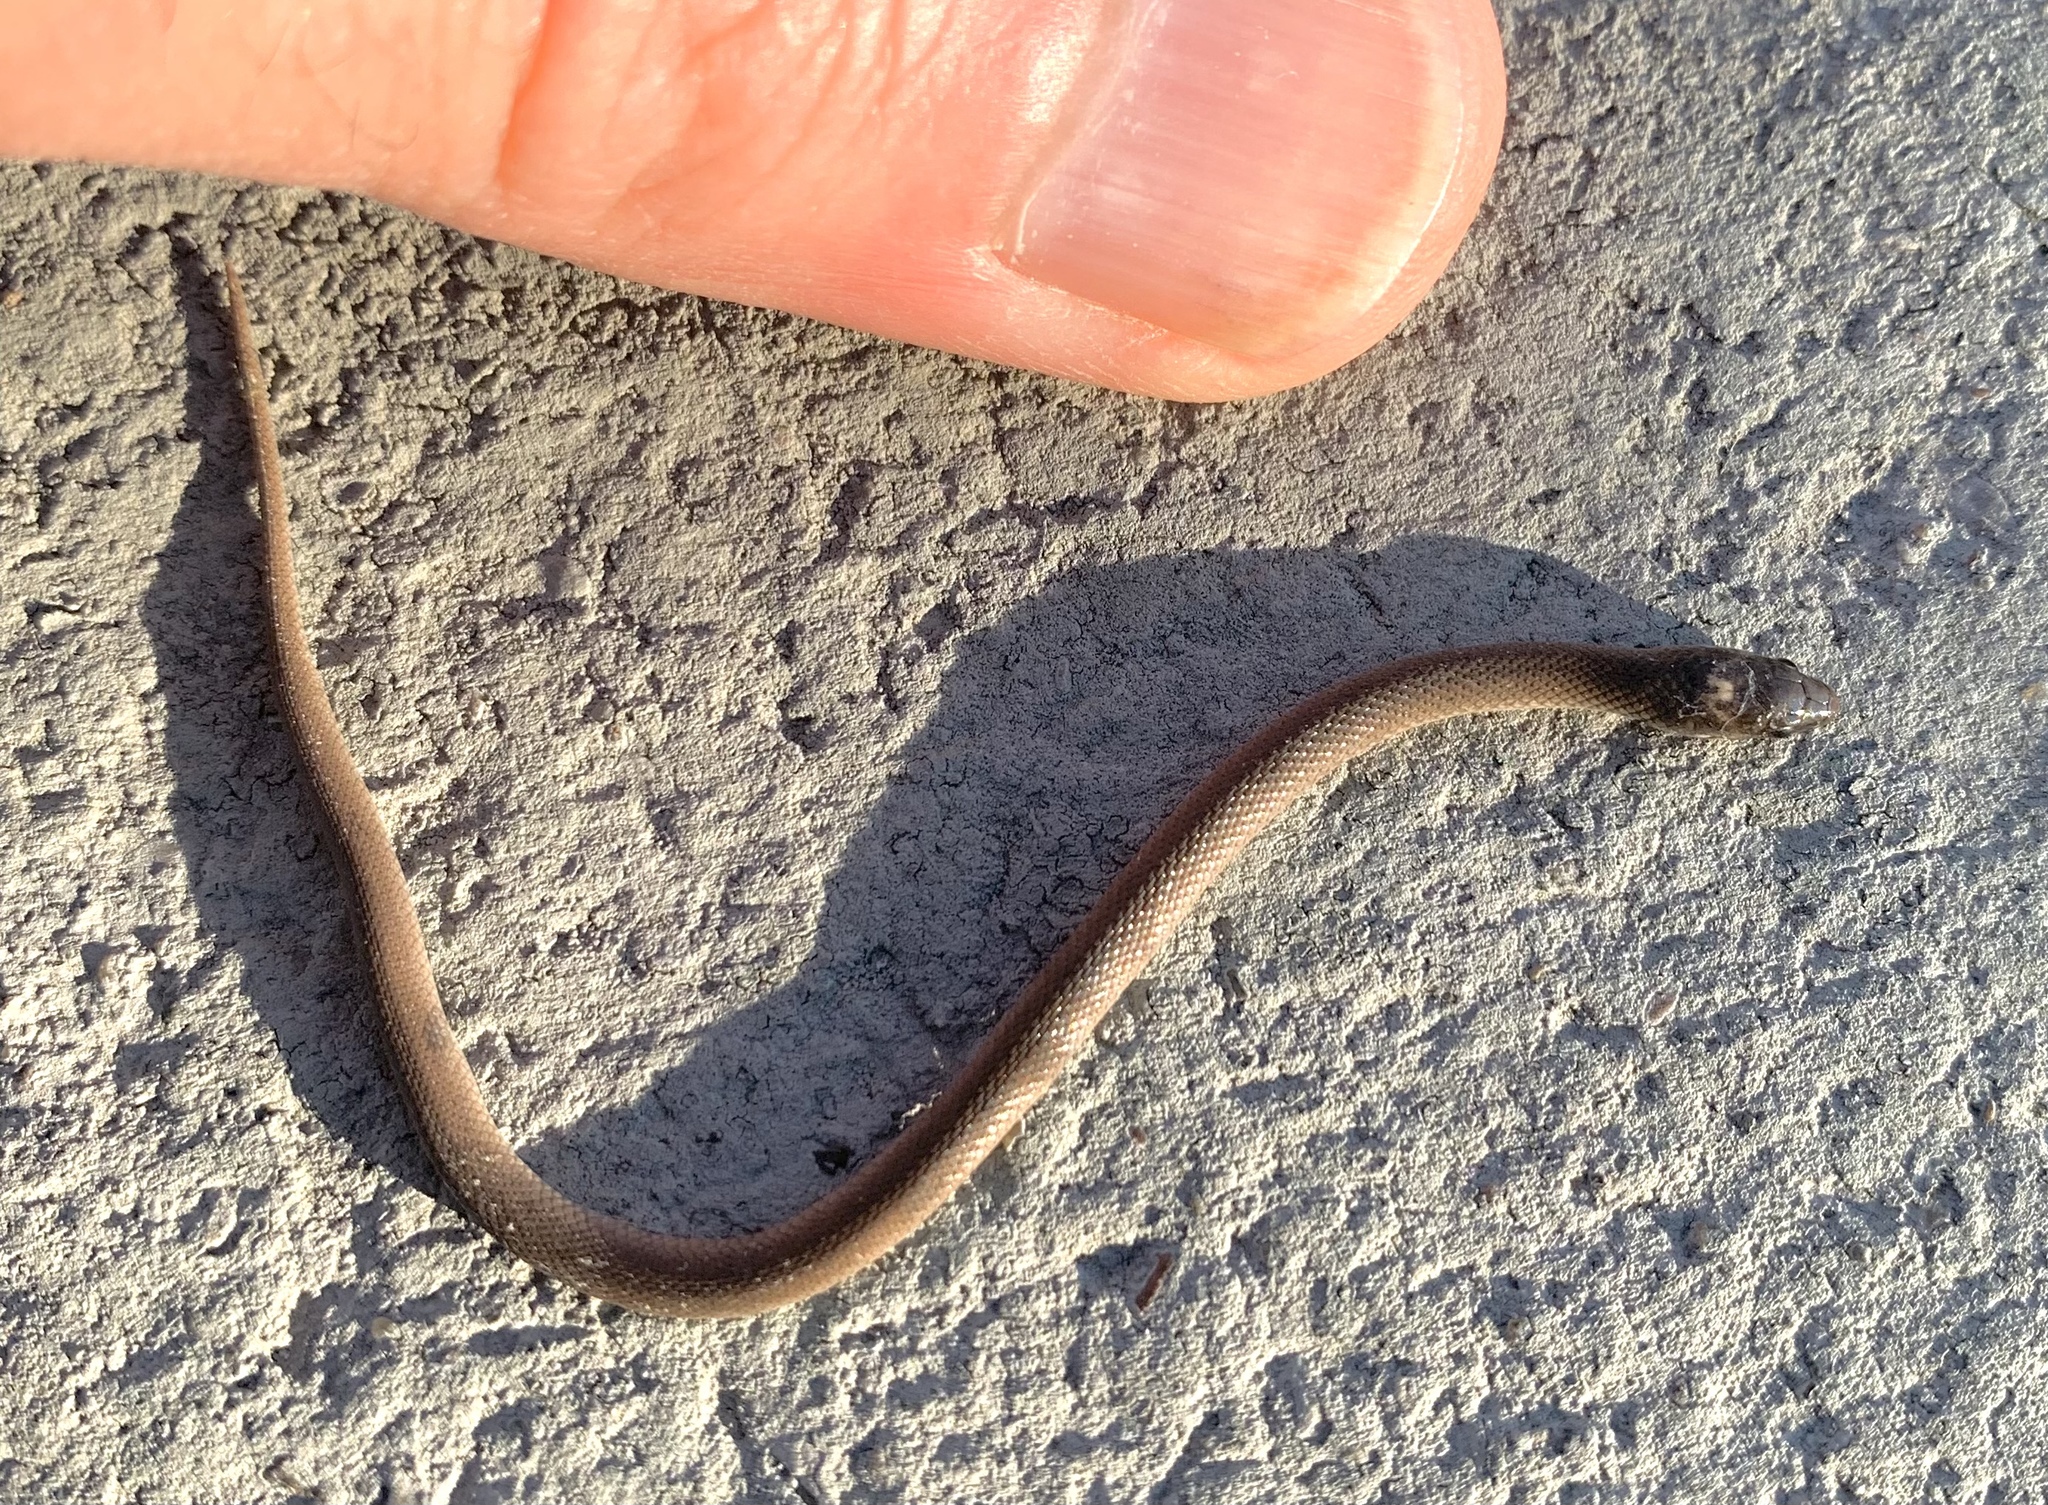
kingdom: Animalia
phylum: Chordata
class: Squamata
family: Colubridae
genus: Haldea
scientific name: Haldea striatula
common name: Rough earth snake
